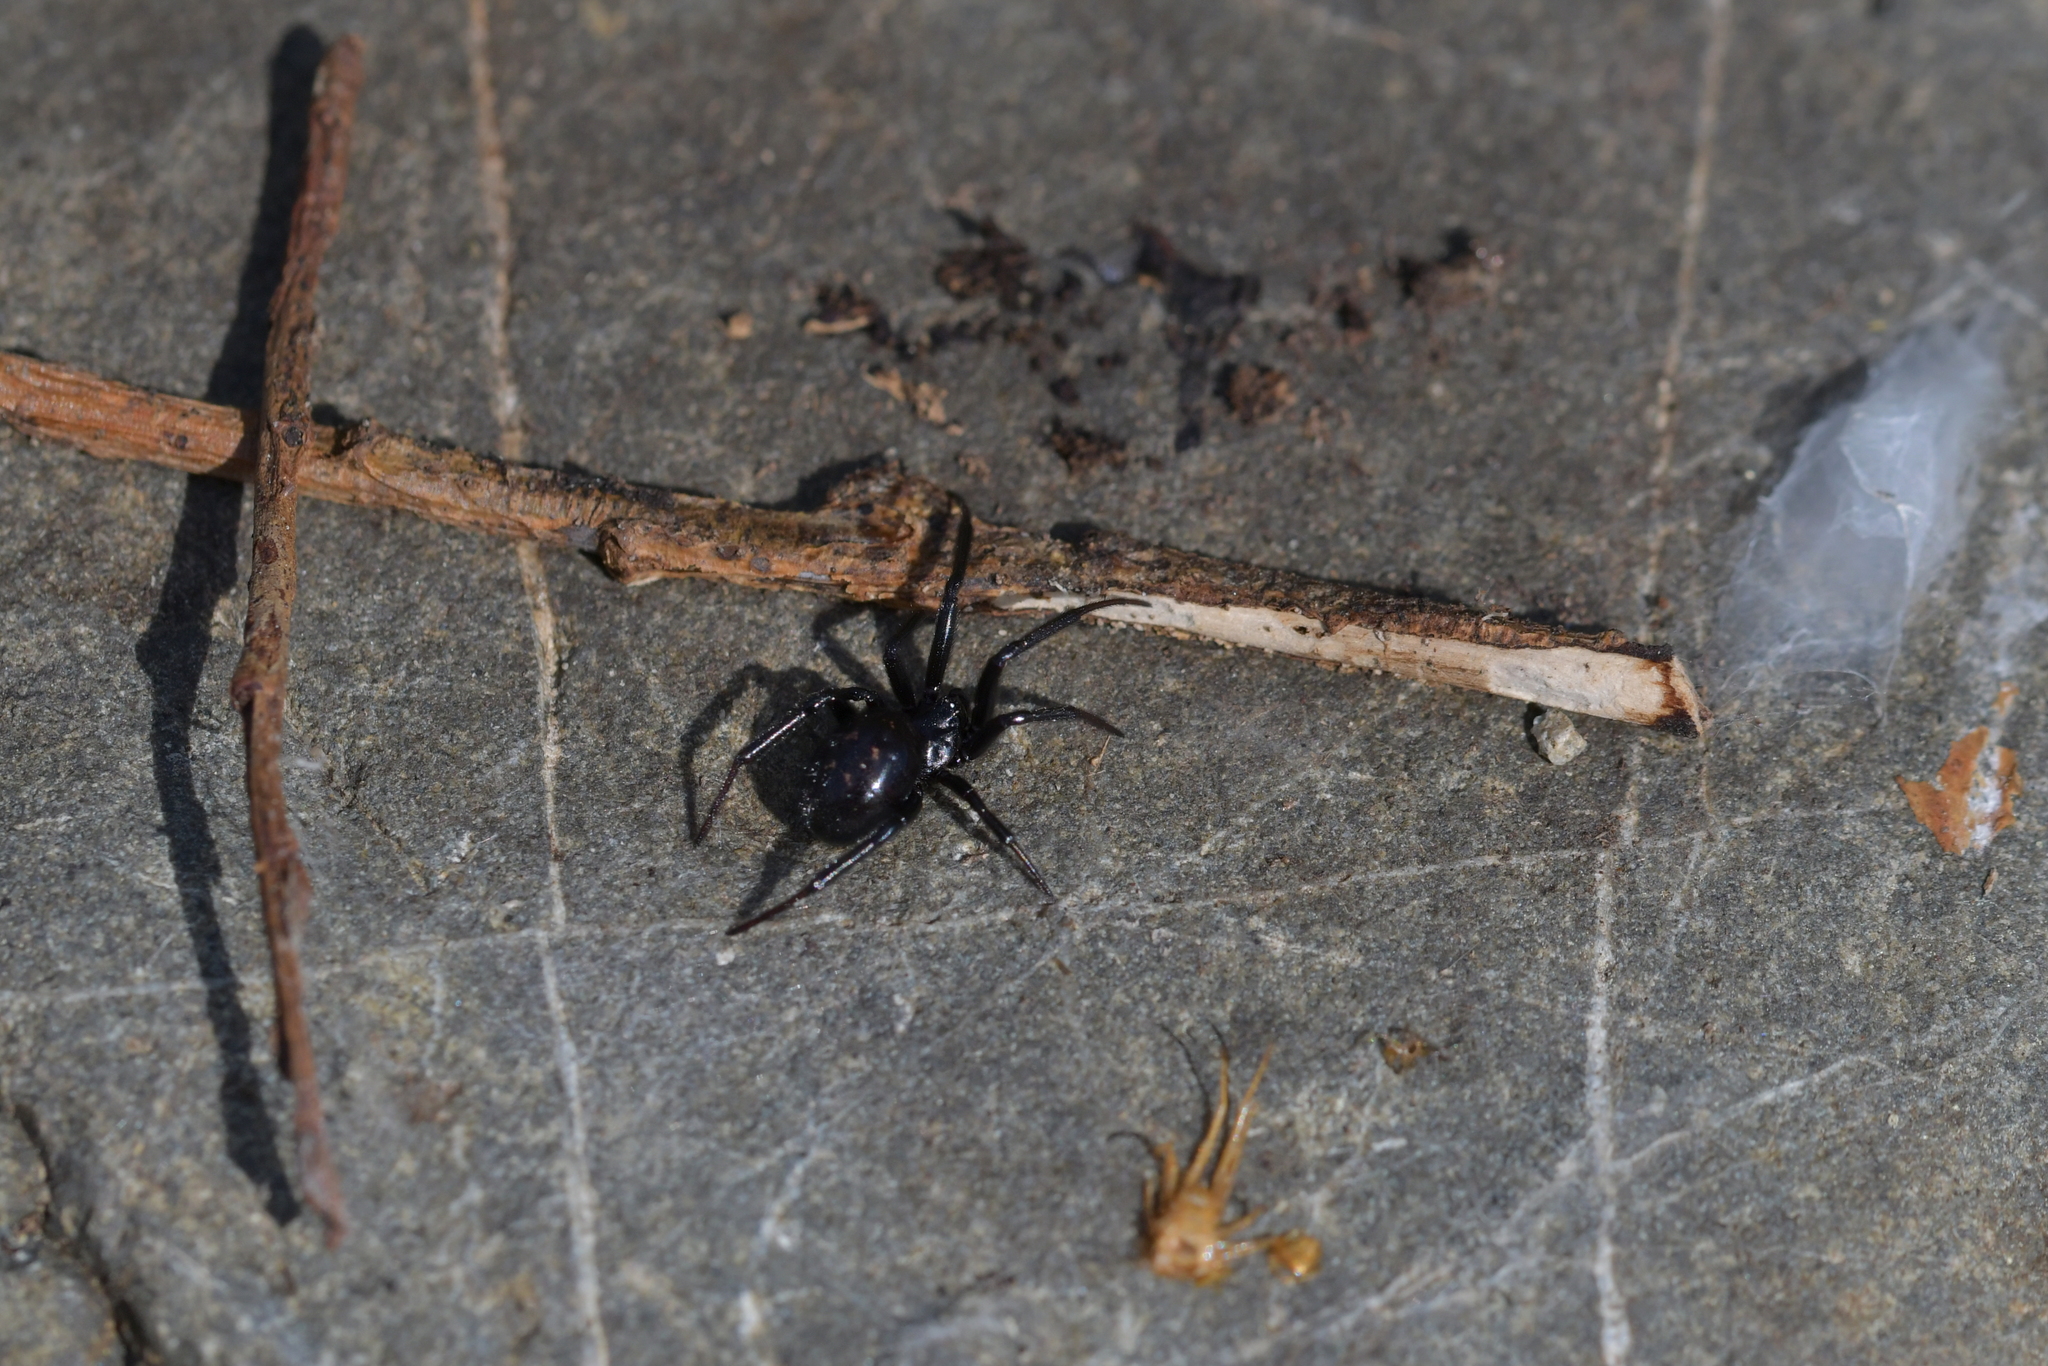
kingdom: Animalia
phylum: Arthropoda
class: Arachnida
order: Araneae
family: Theridiidae
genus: Steatoda
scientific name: Steatoda capensis
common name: Cobweb weaver
